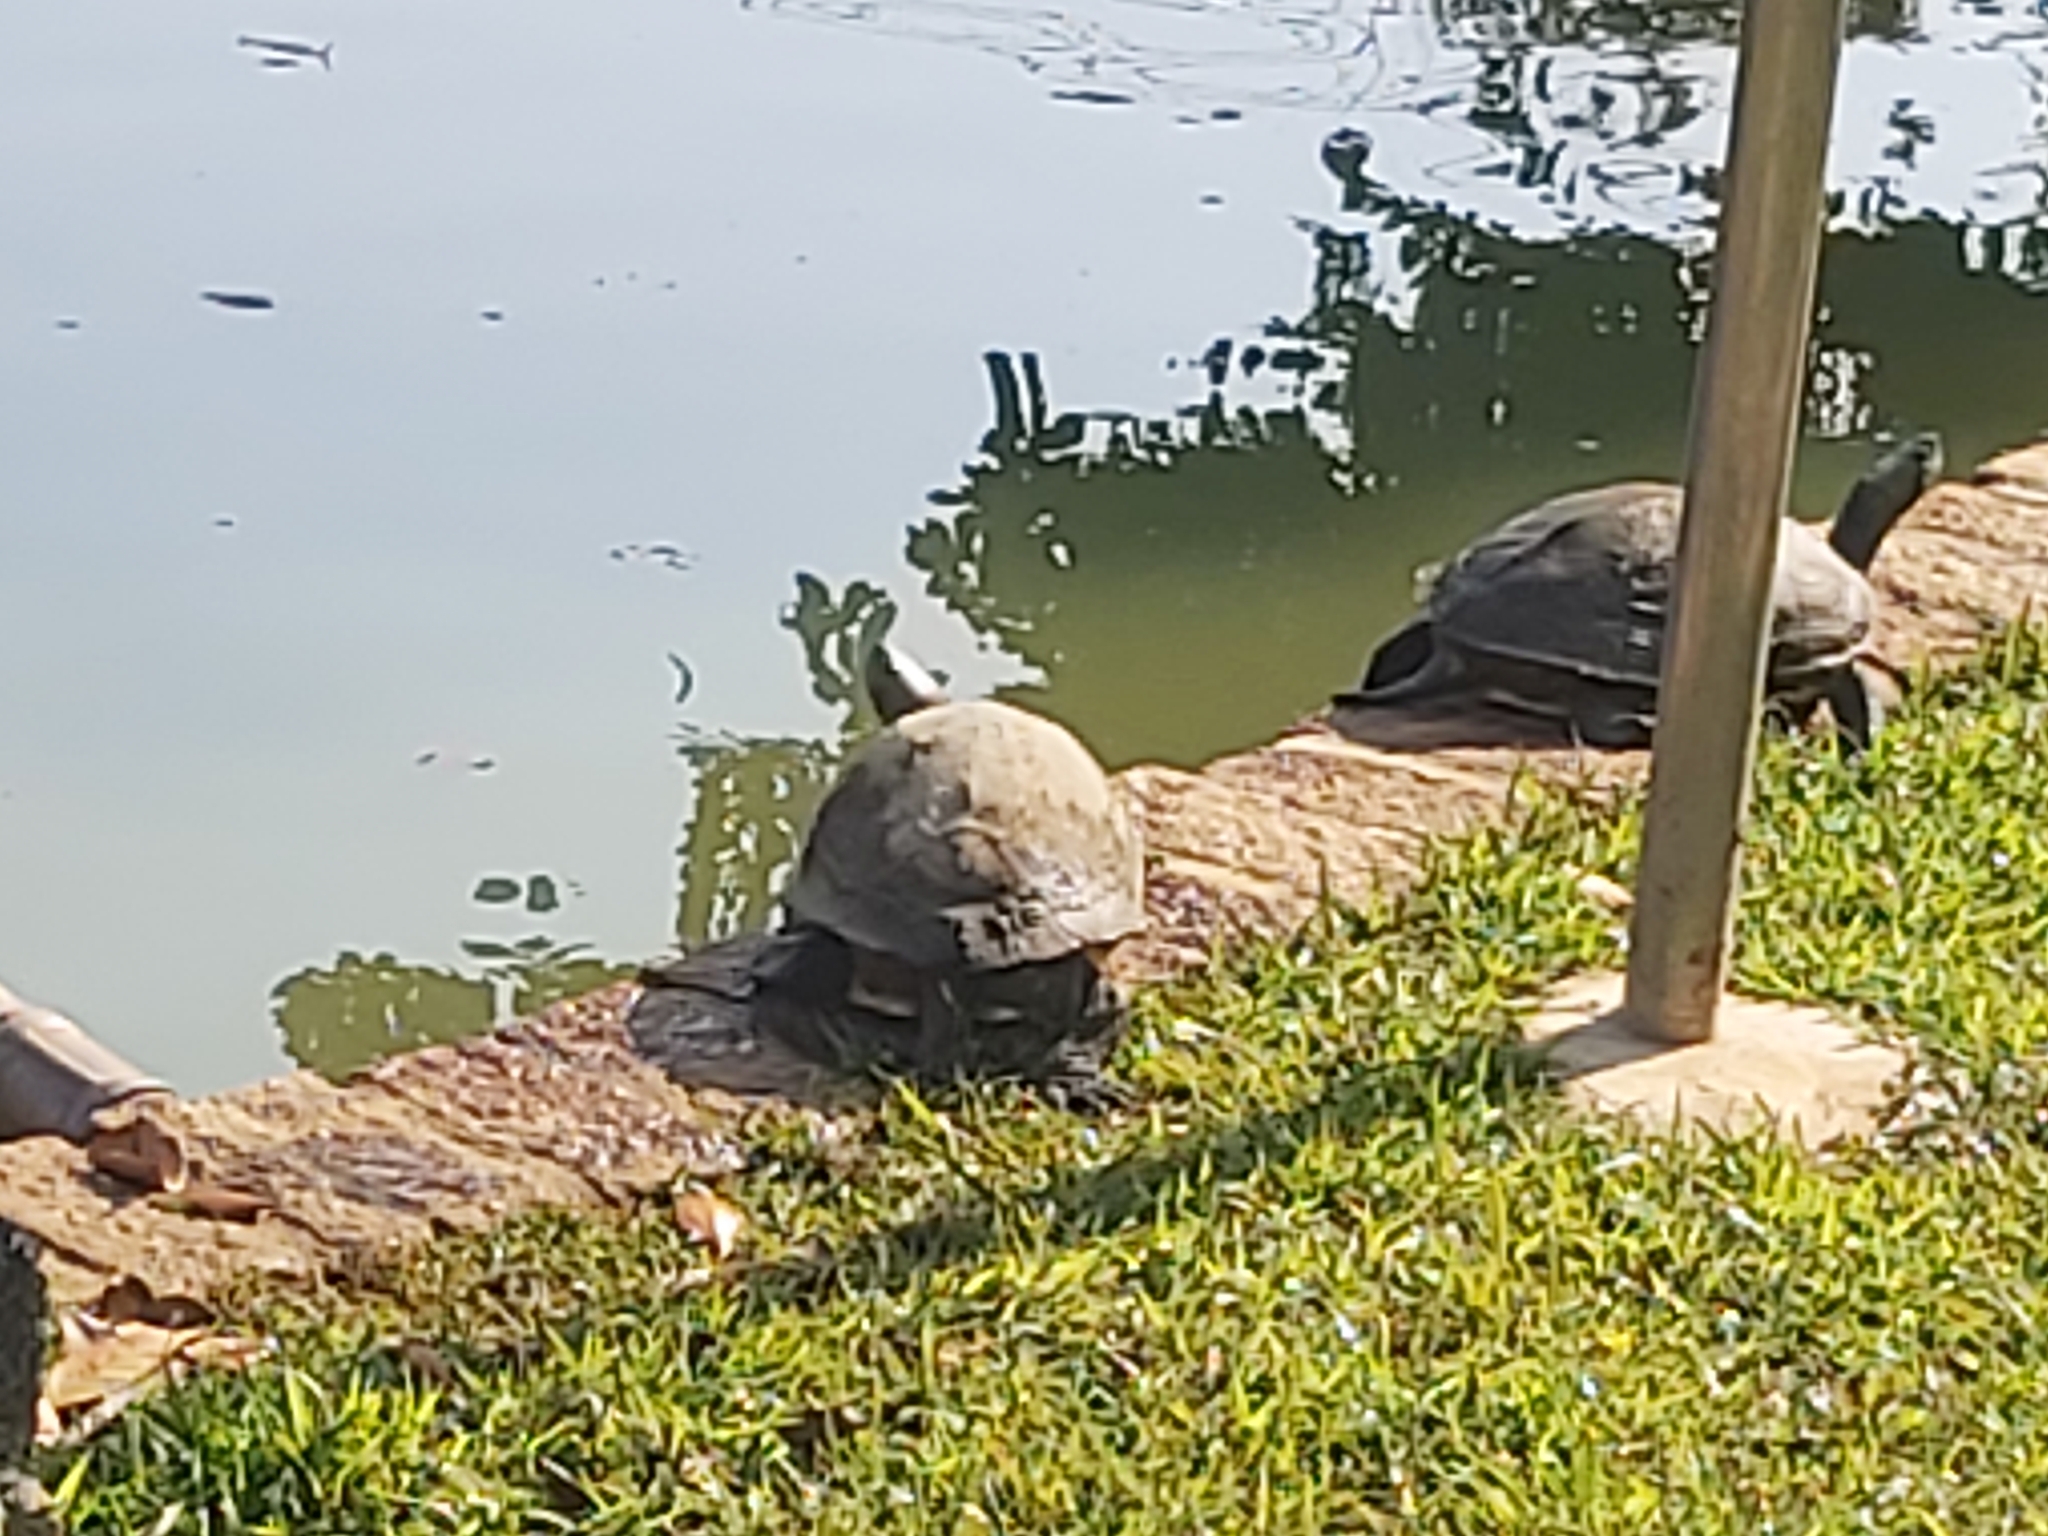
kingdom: Animalia
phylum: Chordata
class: Testudines
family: Geoemydidae
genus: Mauremys
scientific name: Mauremys sinensis
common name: Chinese stripe-necked turtle
